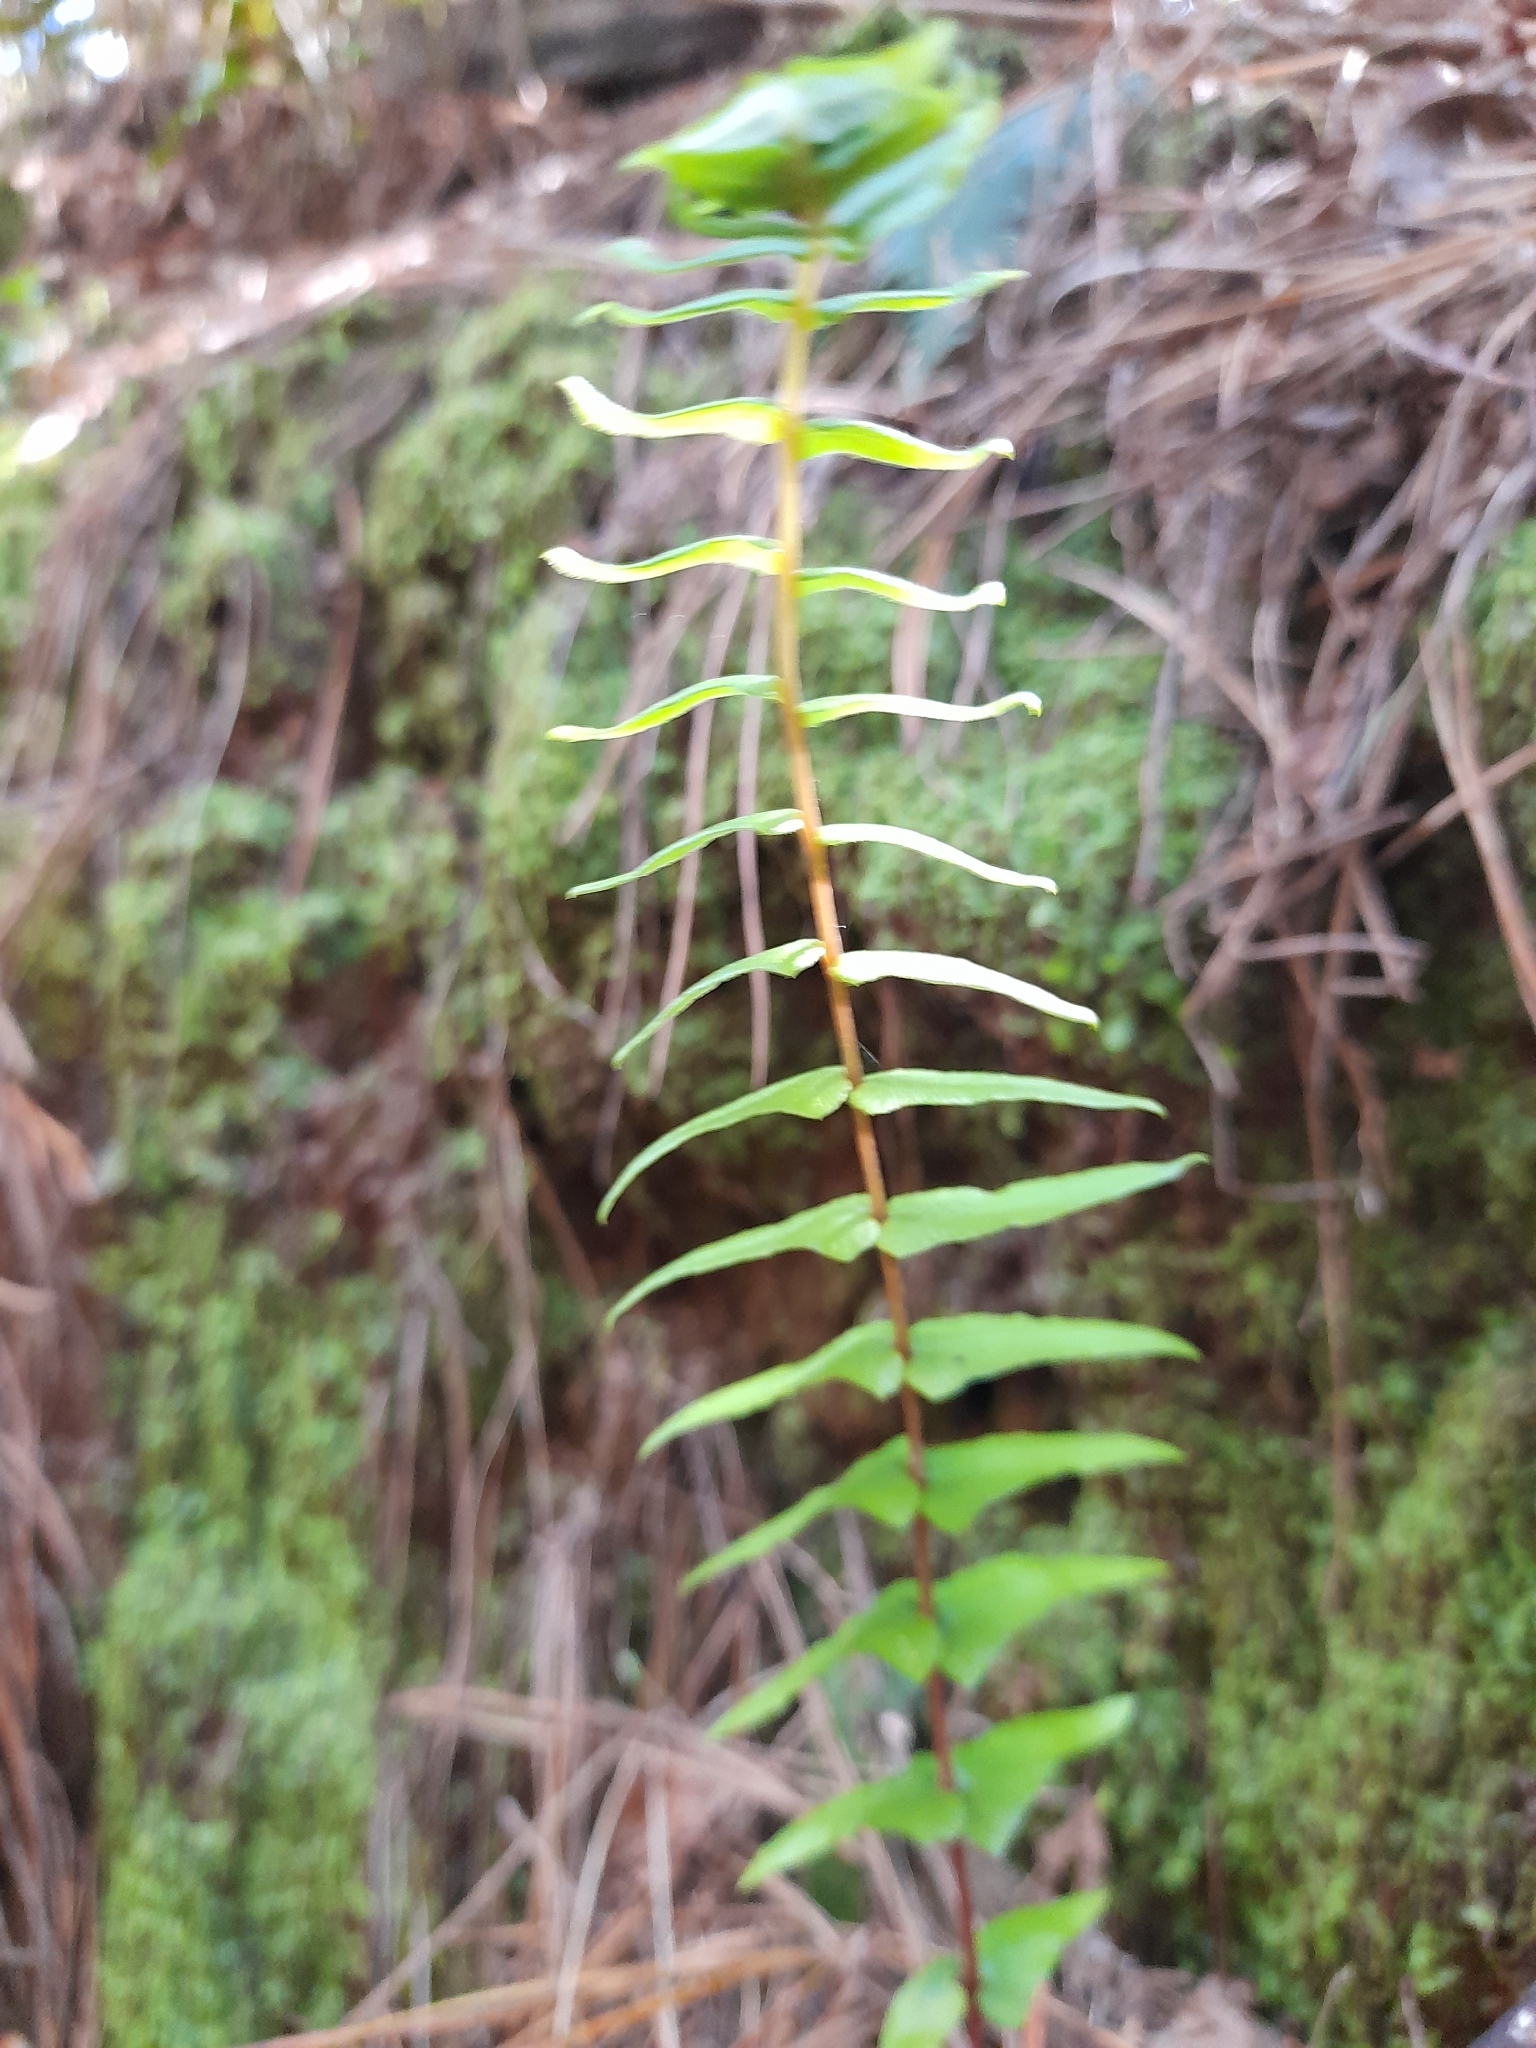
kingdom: Plantae
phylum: Tracheophyta
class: Polypodiopsida
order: Polypodiales
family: Blechnaceae
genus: Blechnum
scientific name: Blechnum hastatum
